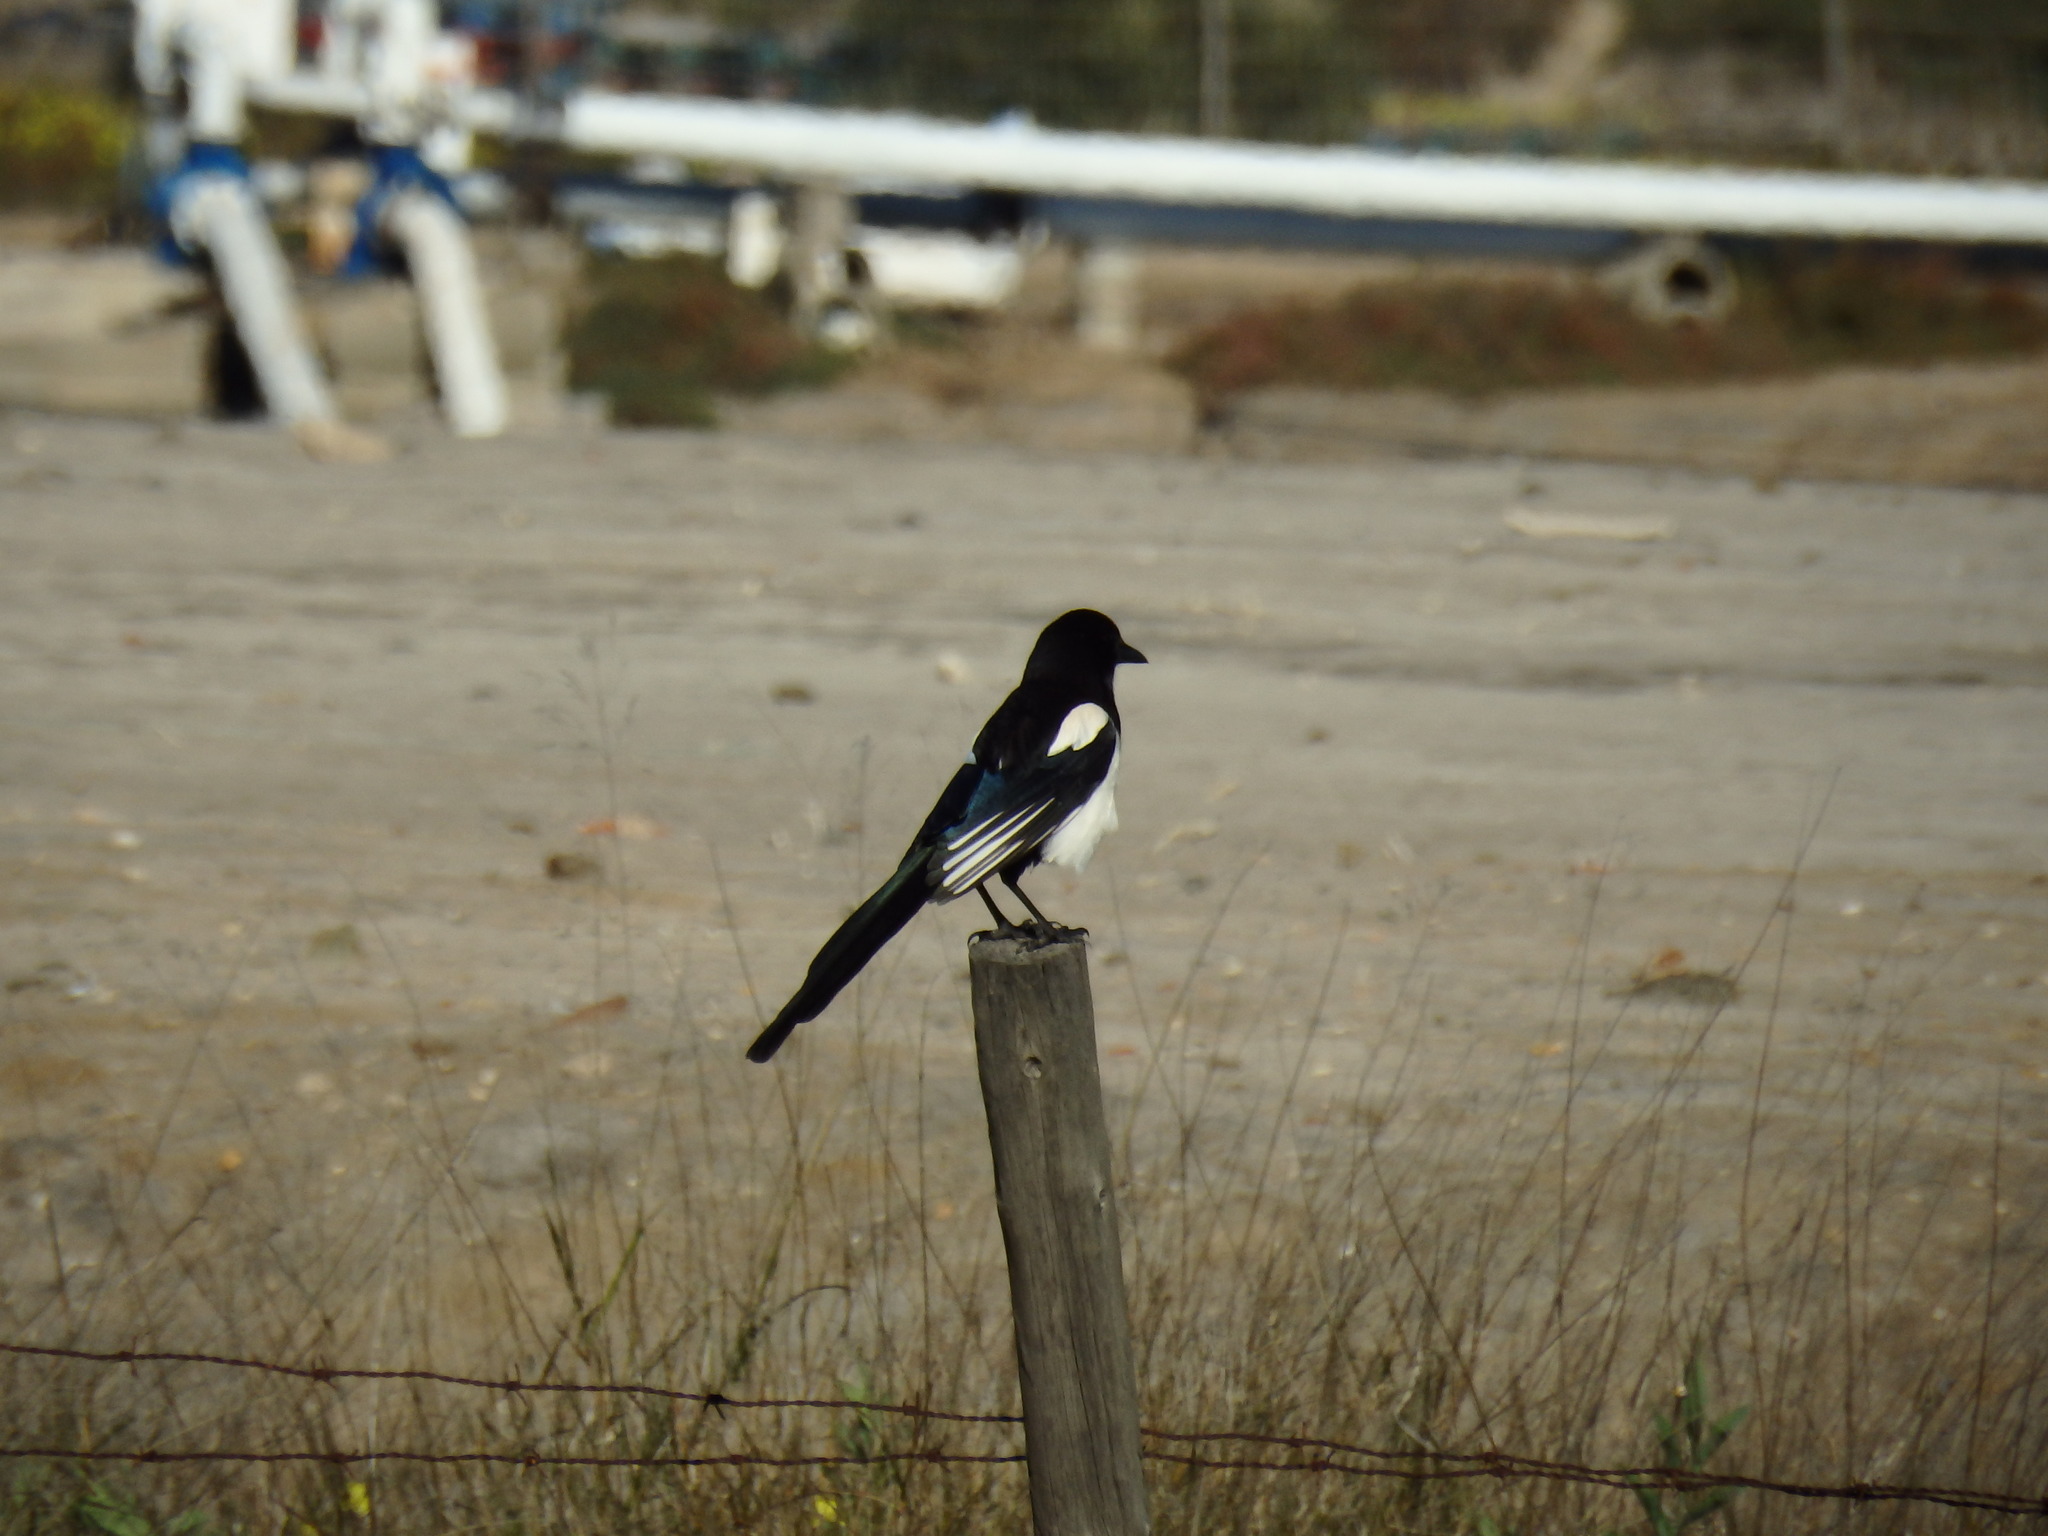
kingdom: Animalia
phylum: Chordata
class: Aves
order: Passeriformes
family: Corvidae
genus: Pica
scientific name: Pica pica
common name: Eurasian magpie
